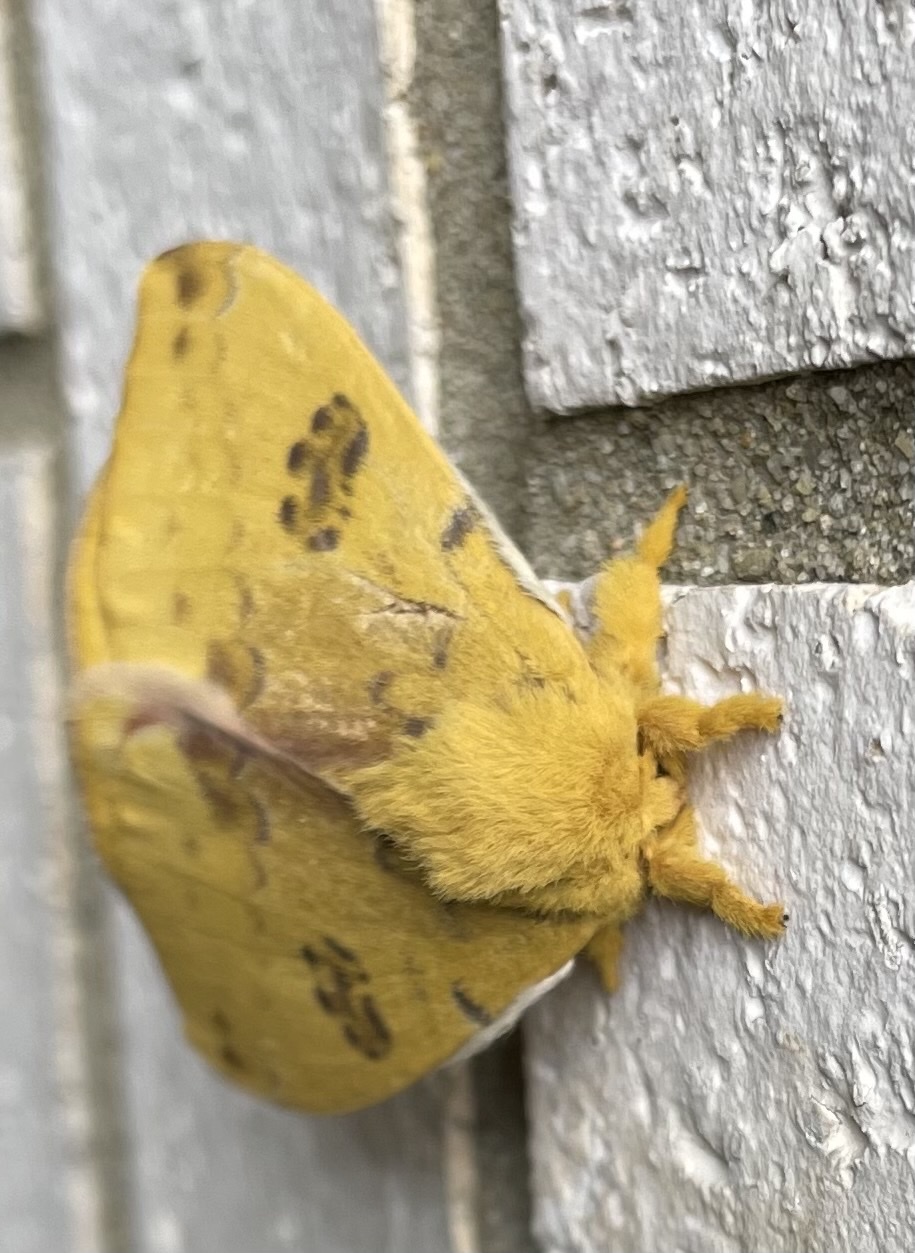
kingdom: Animalia
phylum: Arthropoda
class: Insecta
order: Lepidoptera
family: Saturniidae
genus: Automeris
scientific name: Automeris io
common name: Io moth
